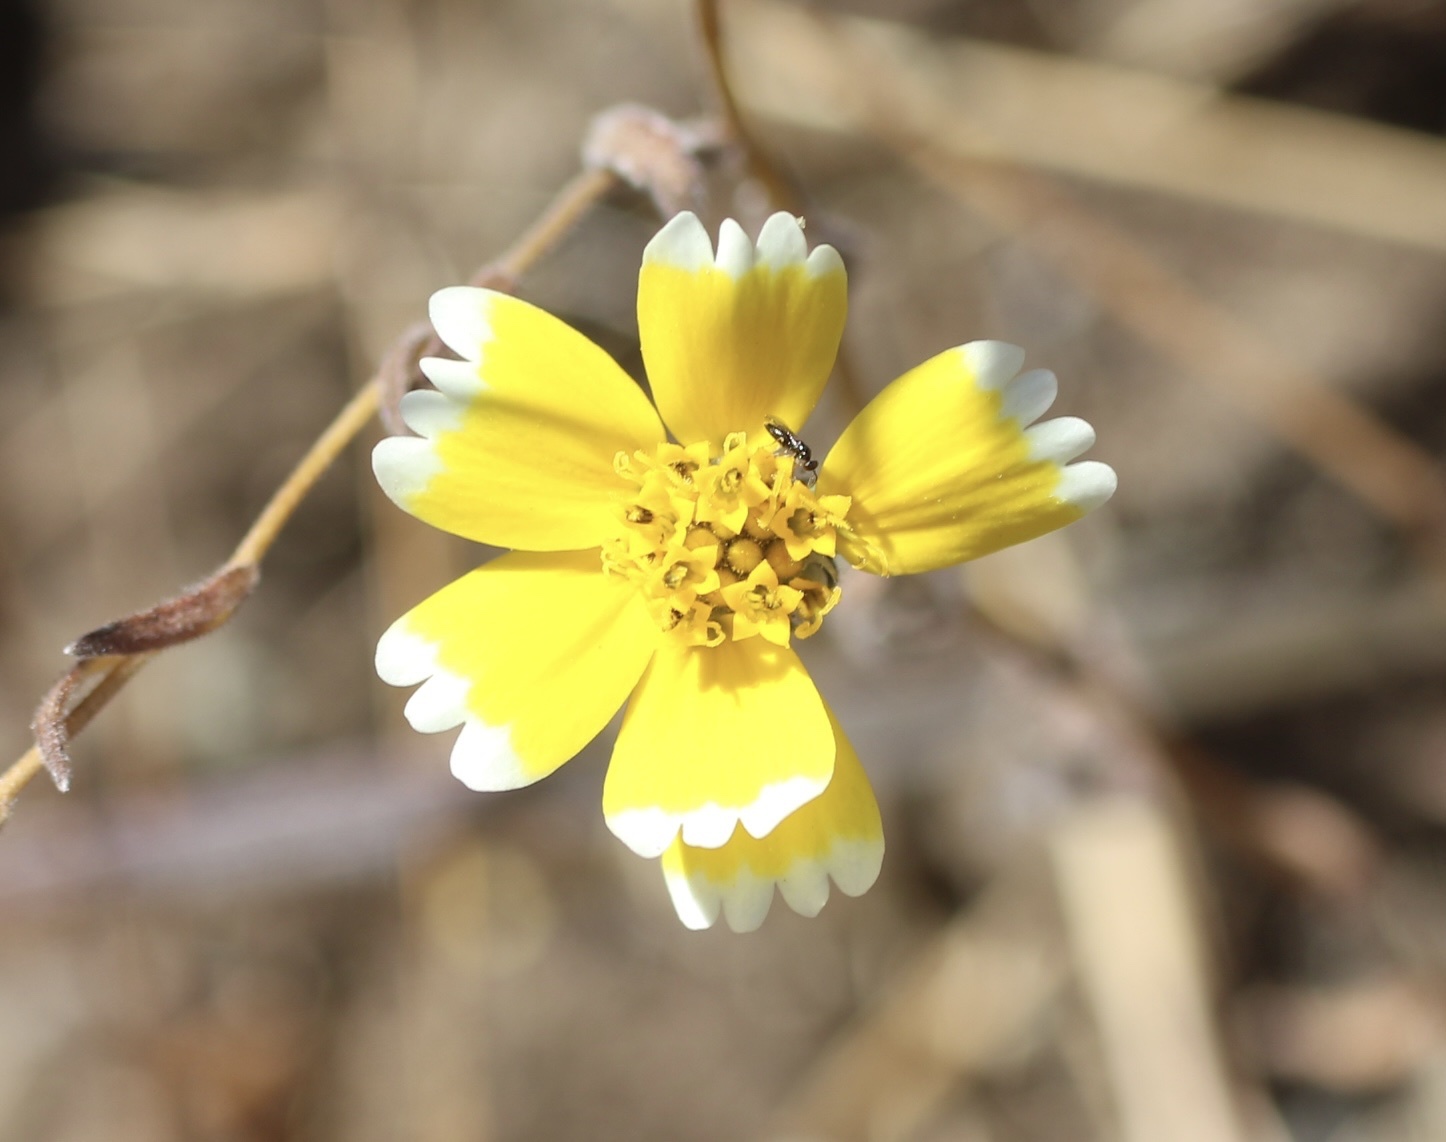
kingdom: Plantae
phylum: Tracheophyta
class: Magnoliopsida
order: Asterales
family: Asteraceae
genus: Layia
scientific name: Layia platyglossa
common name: Tidy-tips
